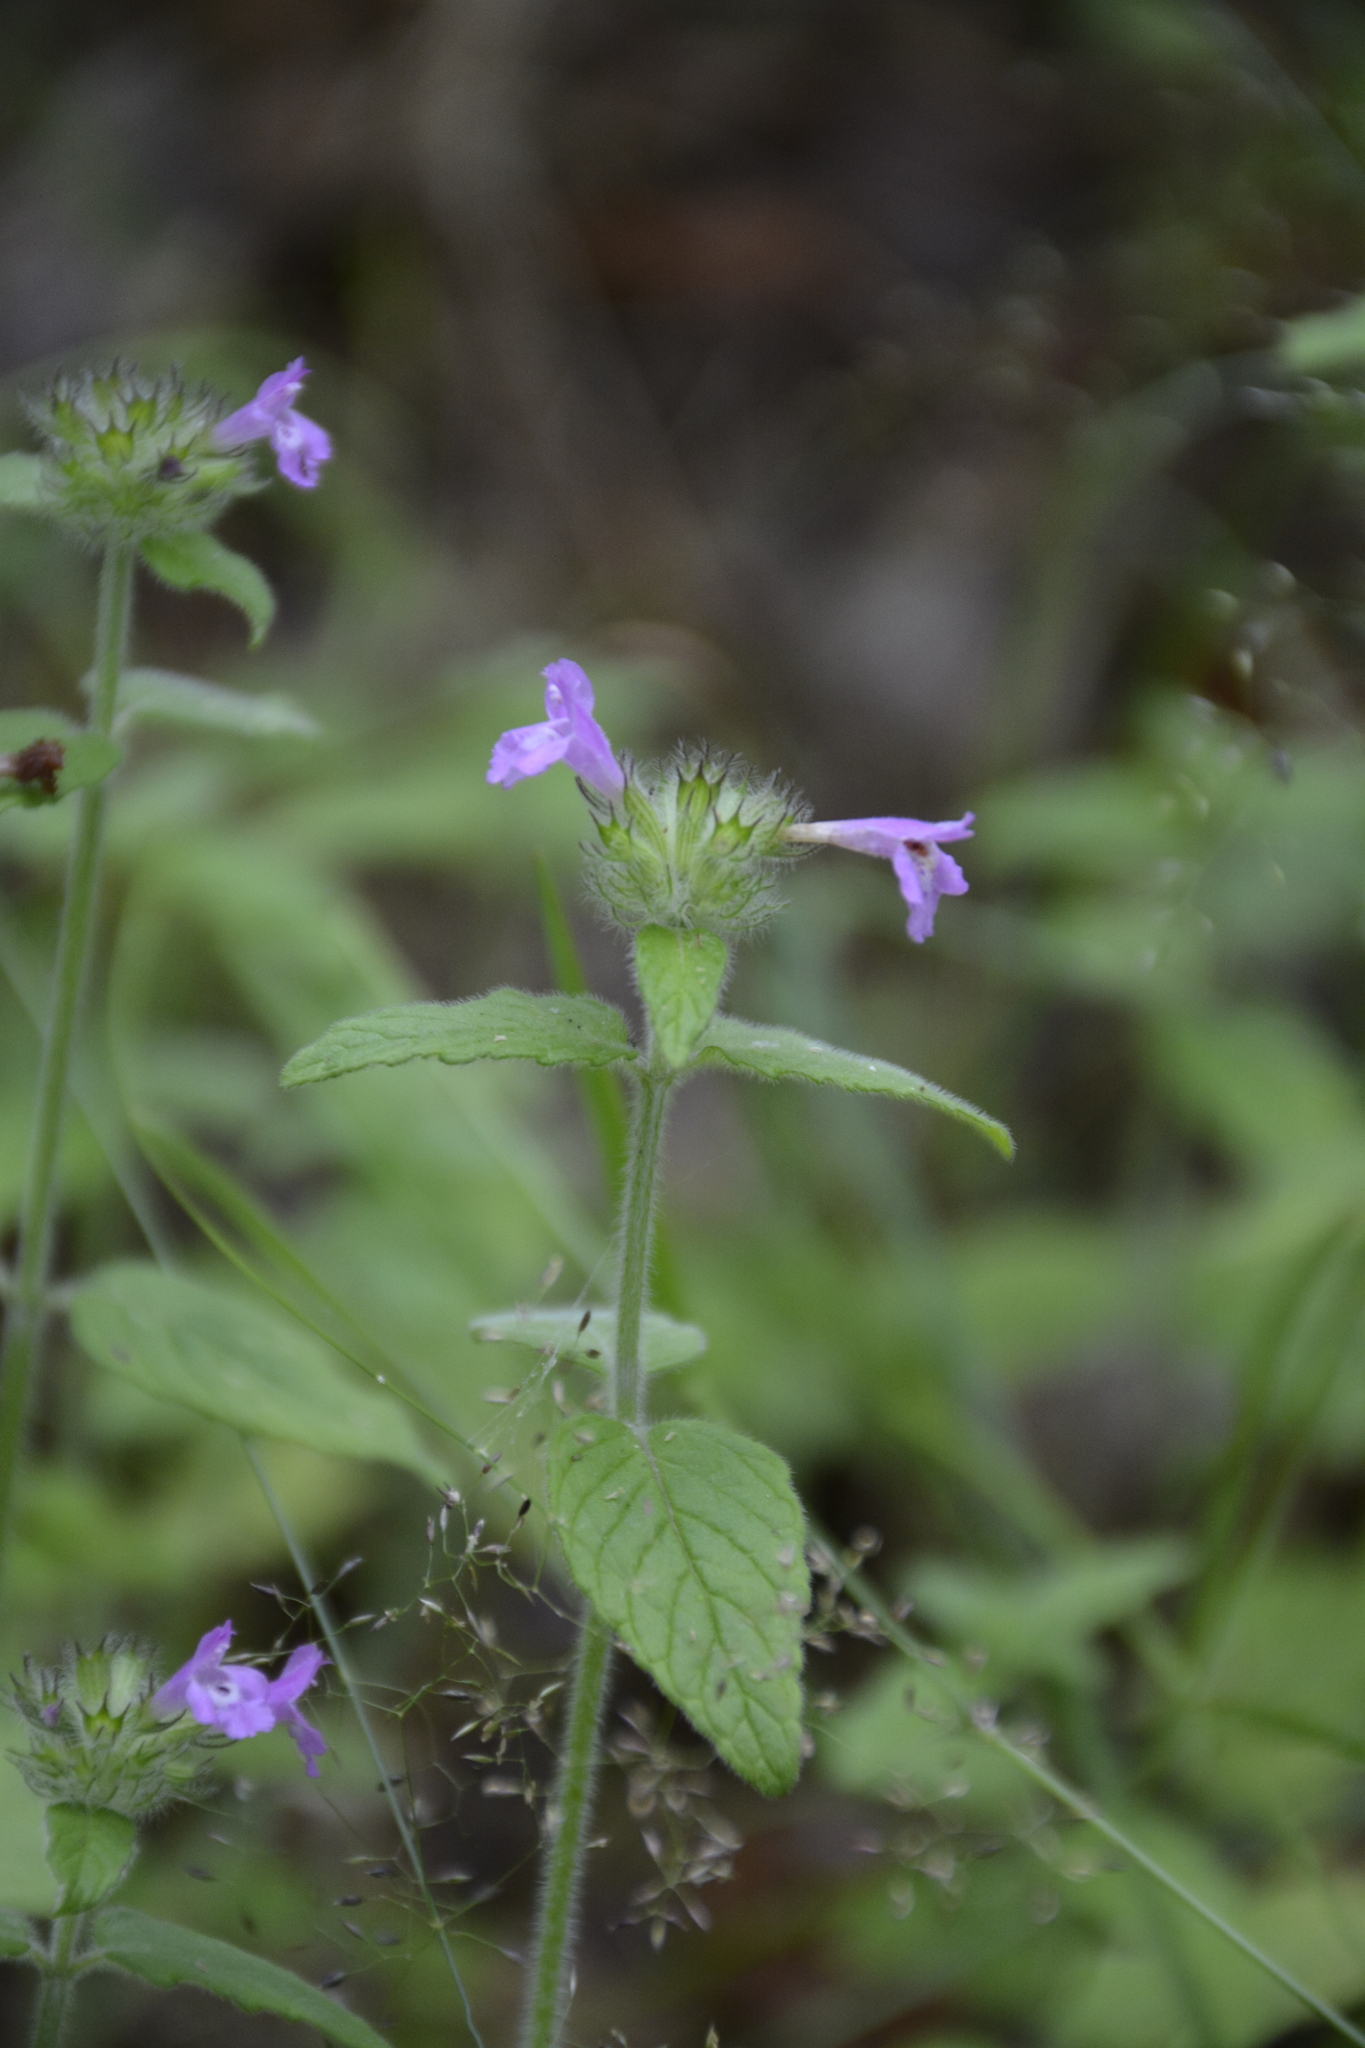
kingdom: Plantae
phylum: Tracheophyta
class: Magnoliopsida
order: Lamiales
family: Lamiaceae
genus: Clinopodium
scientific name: Clinopodium vulgare
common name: Wild basil
